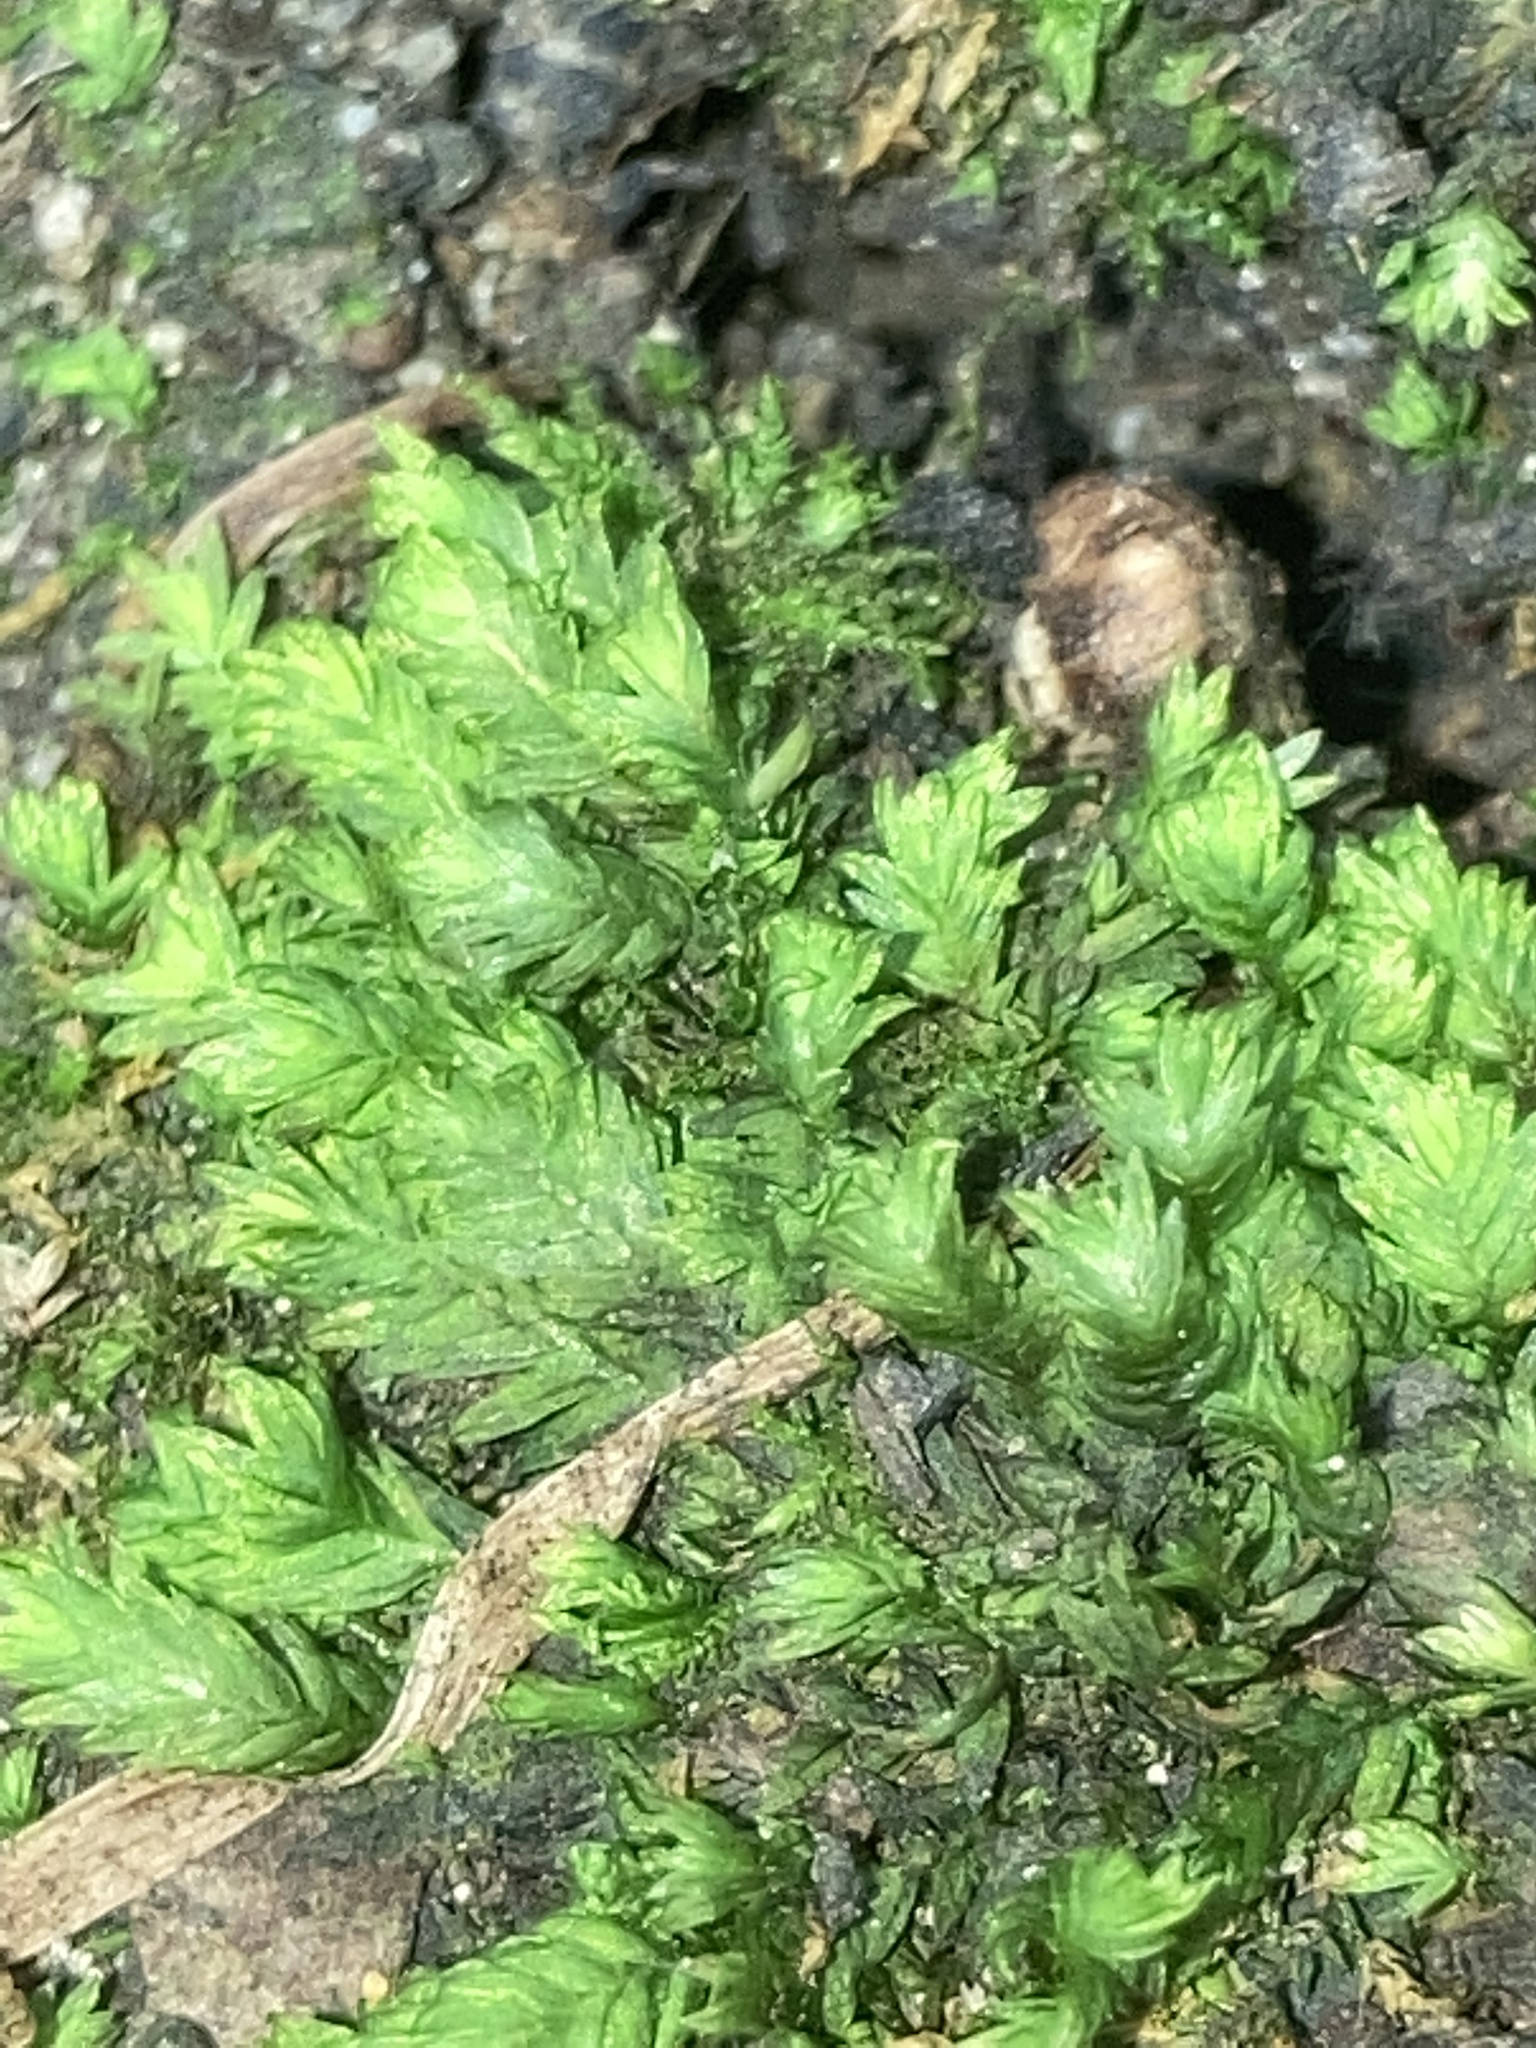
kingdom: Plantae
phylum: Bryophyta
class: Bryopsida
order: Dicranales
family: Fissidentaceae
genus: Fissidens
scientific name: Fissidens dubius
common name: Rock pocket moss
